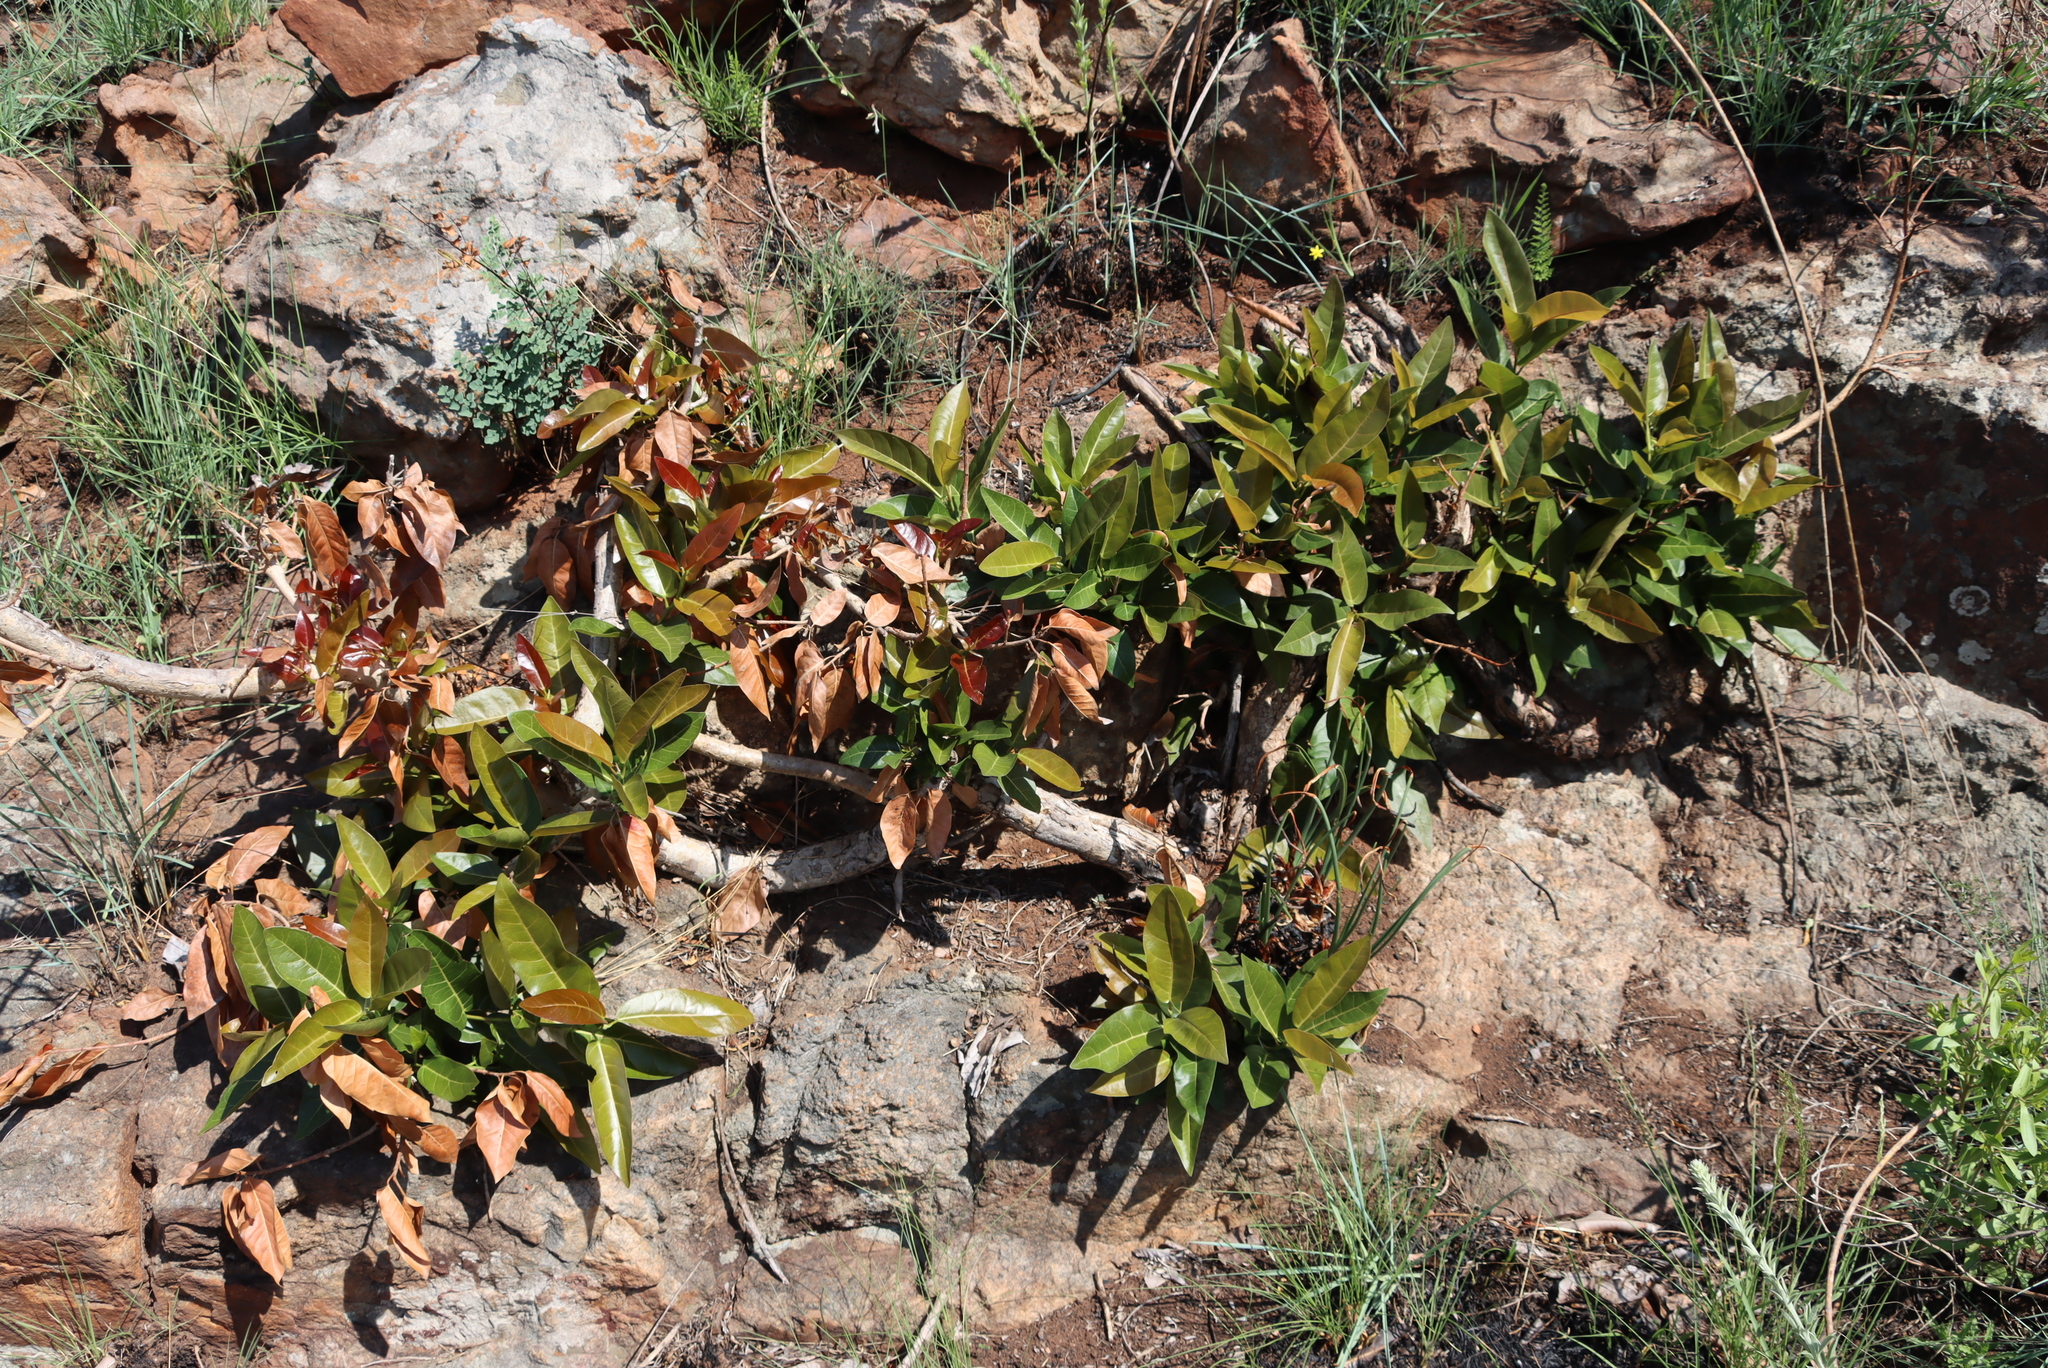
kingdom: Plantae
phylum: Tracheophyta
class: Magnoliopsida
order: Rosales
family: Moraceae
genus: Ficus
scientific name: Ficus ingens
